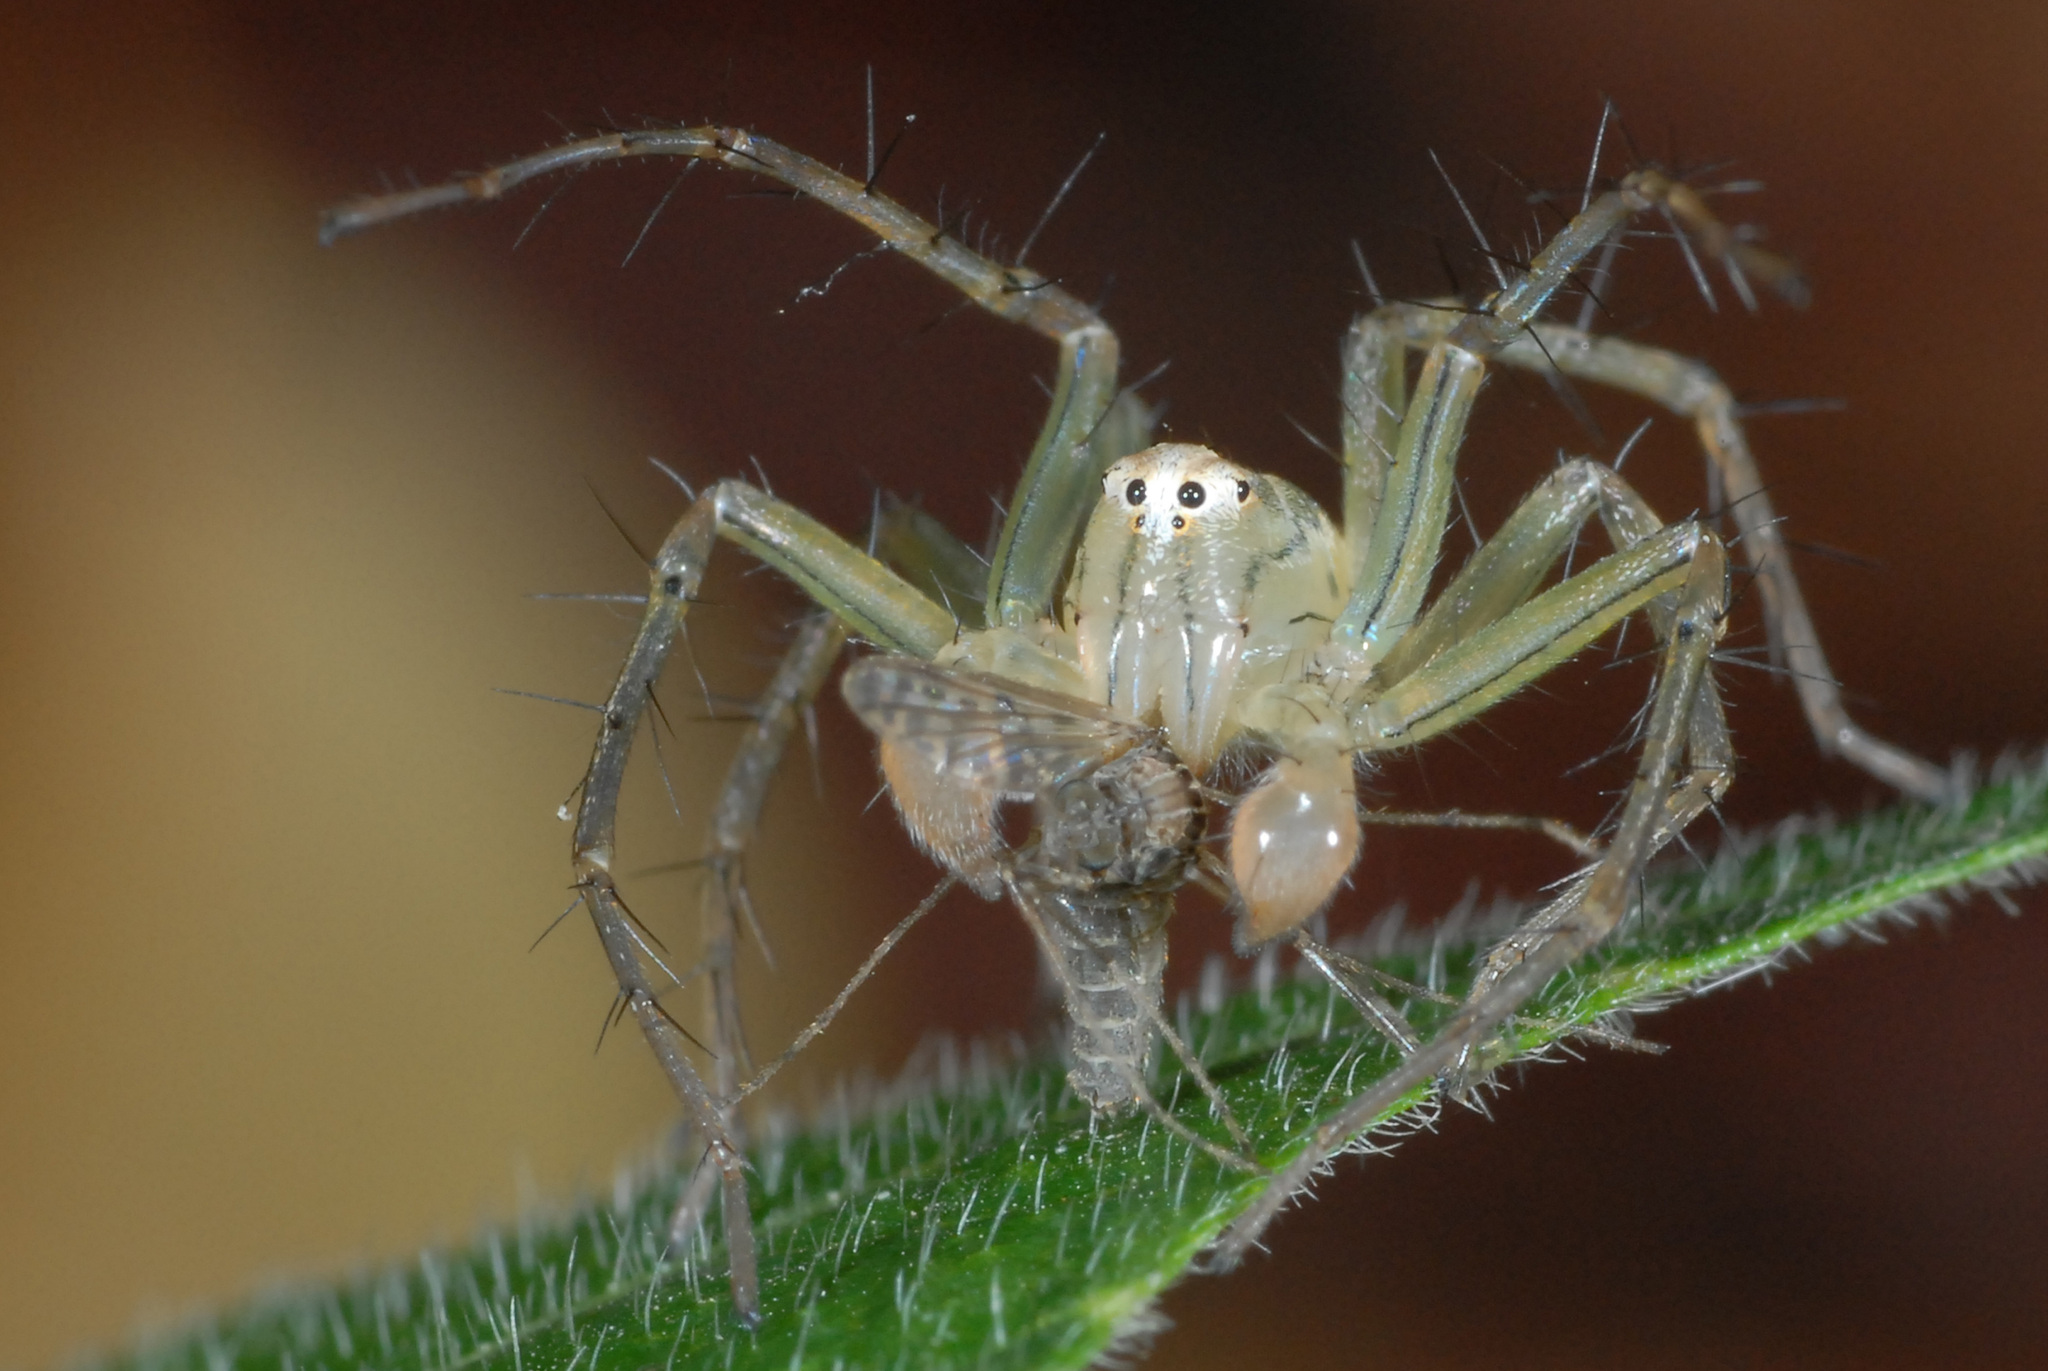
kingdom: Animalia
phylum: Arthropoda
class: Arachnida
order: Araneae
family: Oxyopidae
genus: Oxyopes
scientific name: Oxyopes sertatus
